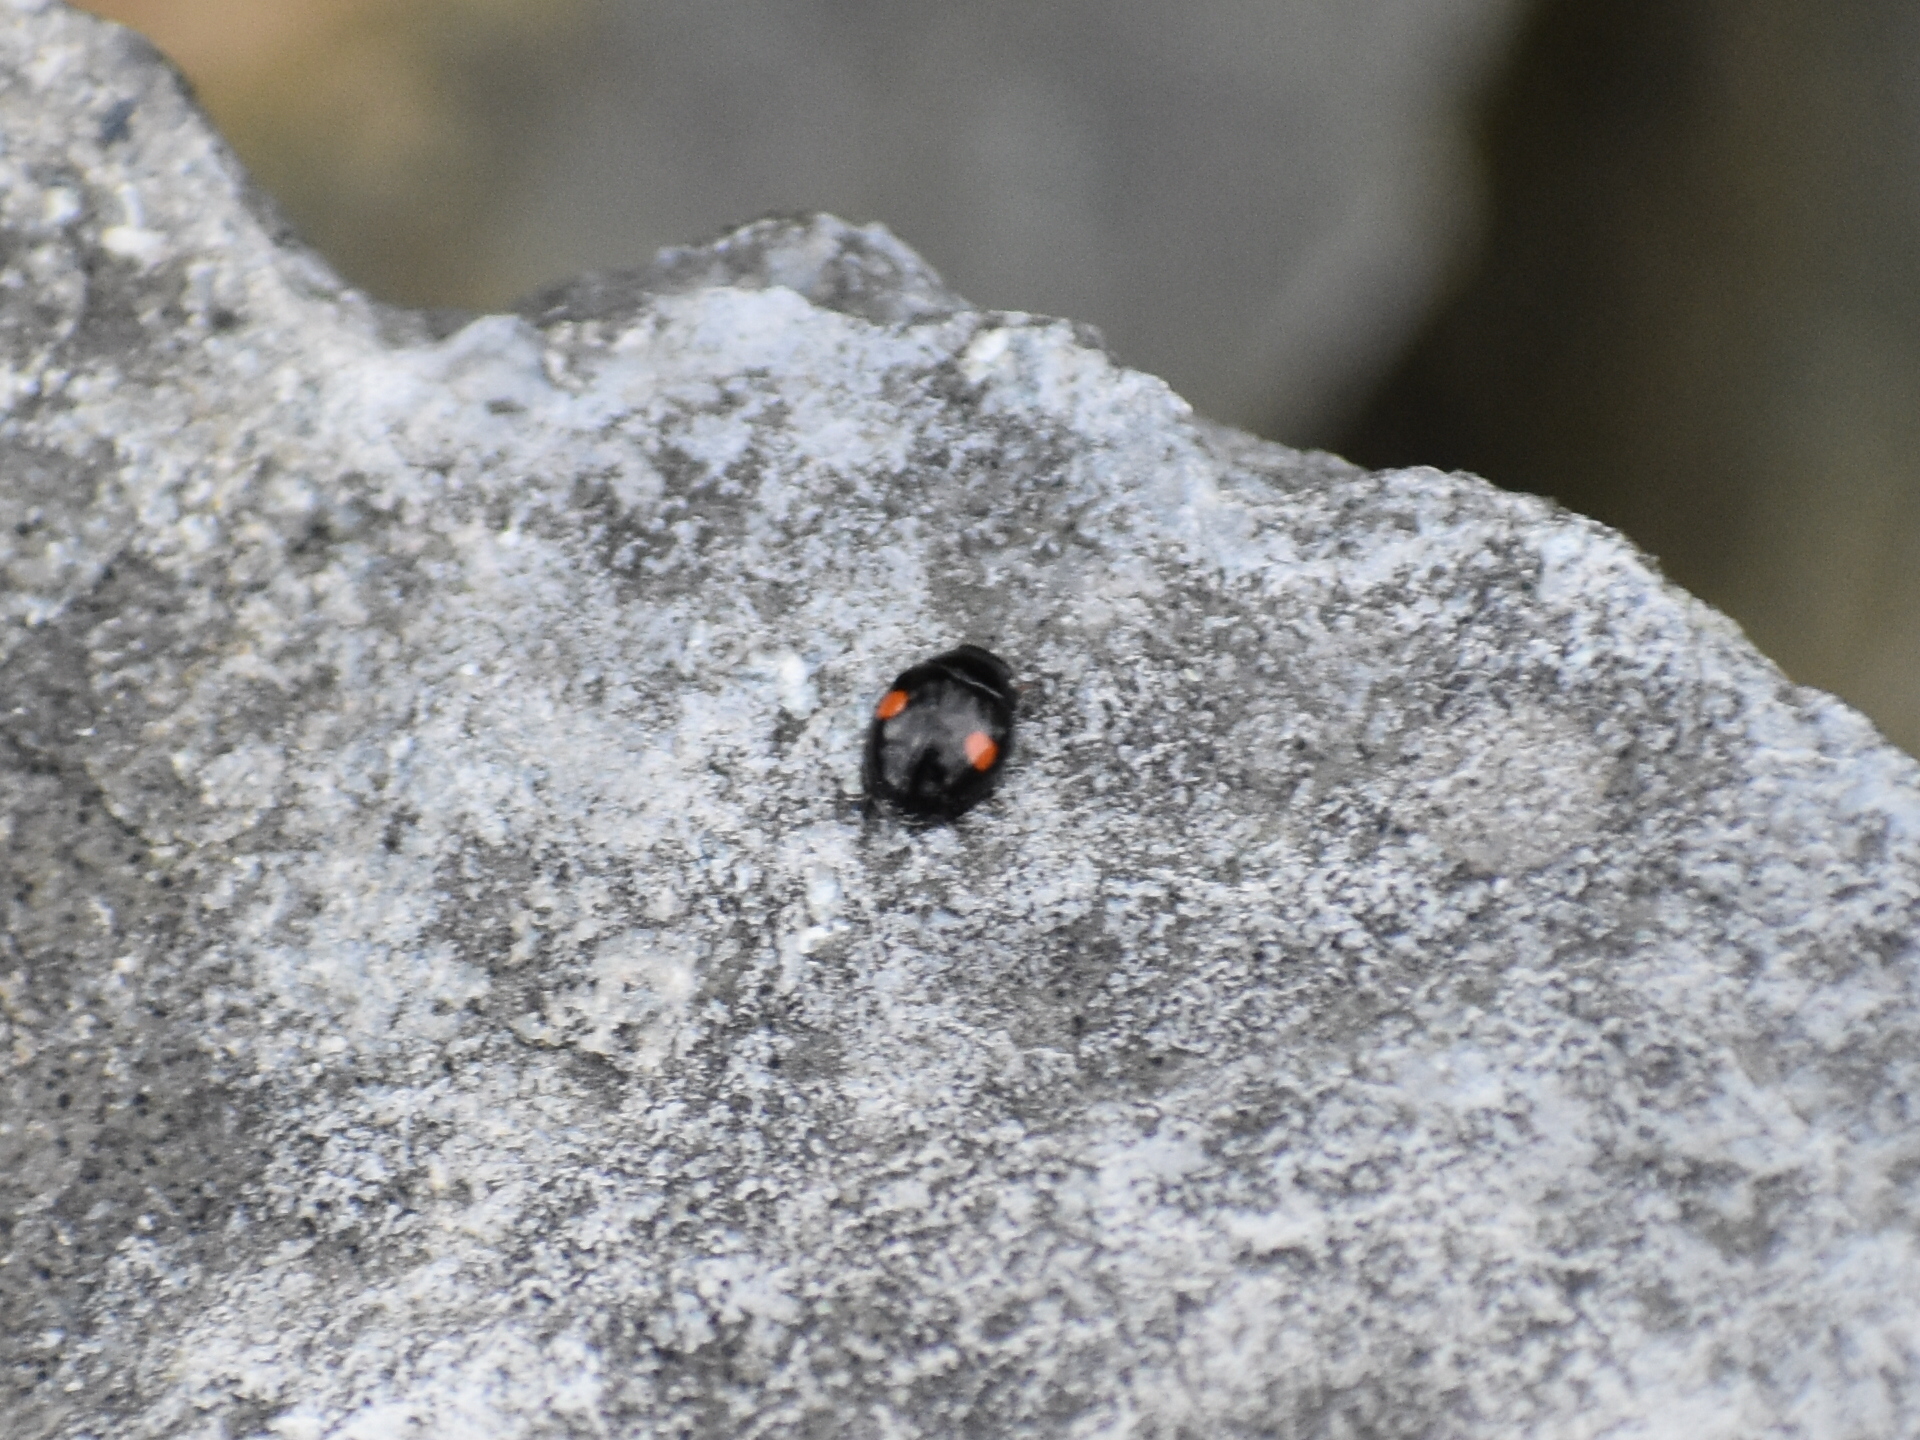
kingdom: Animalia
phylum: Arthropoda
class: Insecta
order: Coleoptera
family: Coccinellidae
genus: Hyperaspis
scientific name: Hyperaspis
